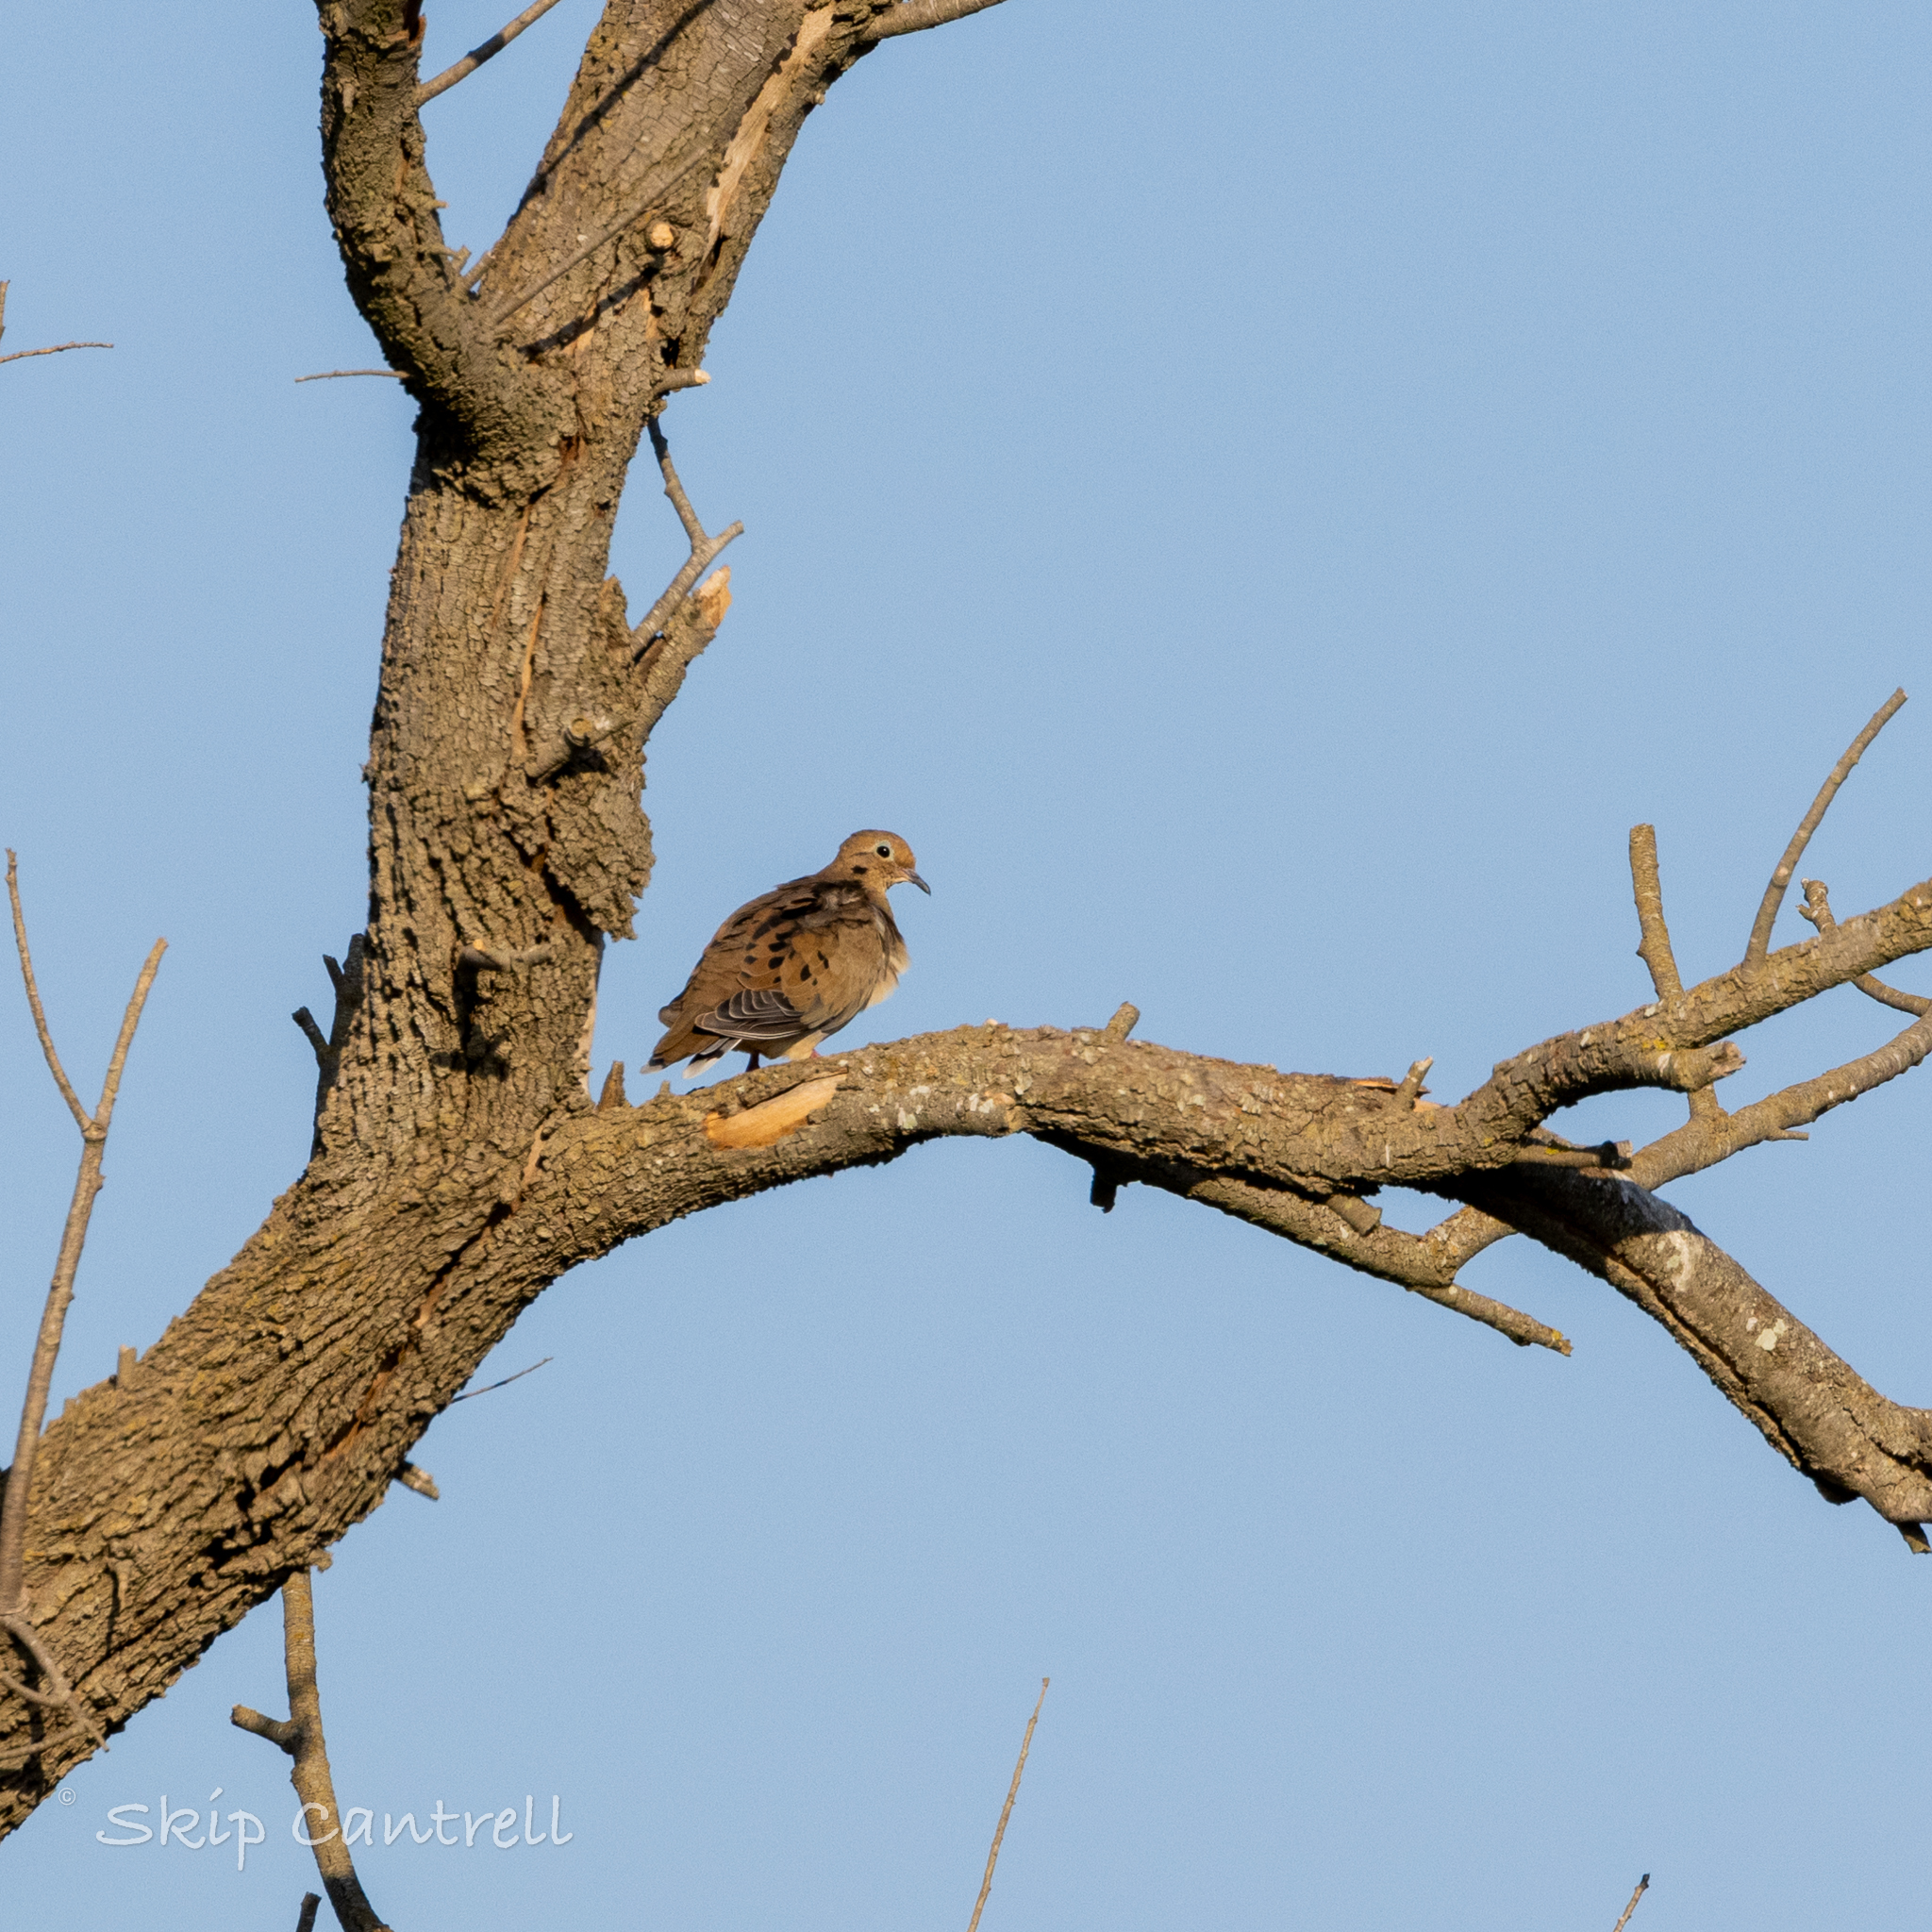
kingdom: Animalia
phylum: Chordata
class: Aves
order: Columbiformes
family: Columbidae
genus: Zenaida
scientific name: Zenaida macroura
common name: Mourning dove
